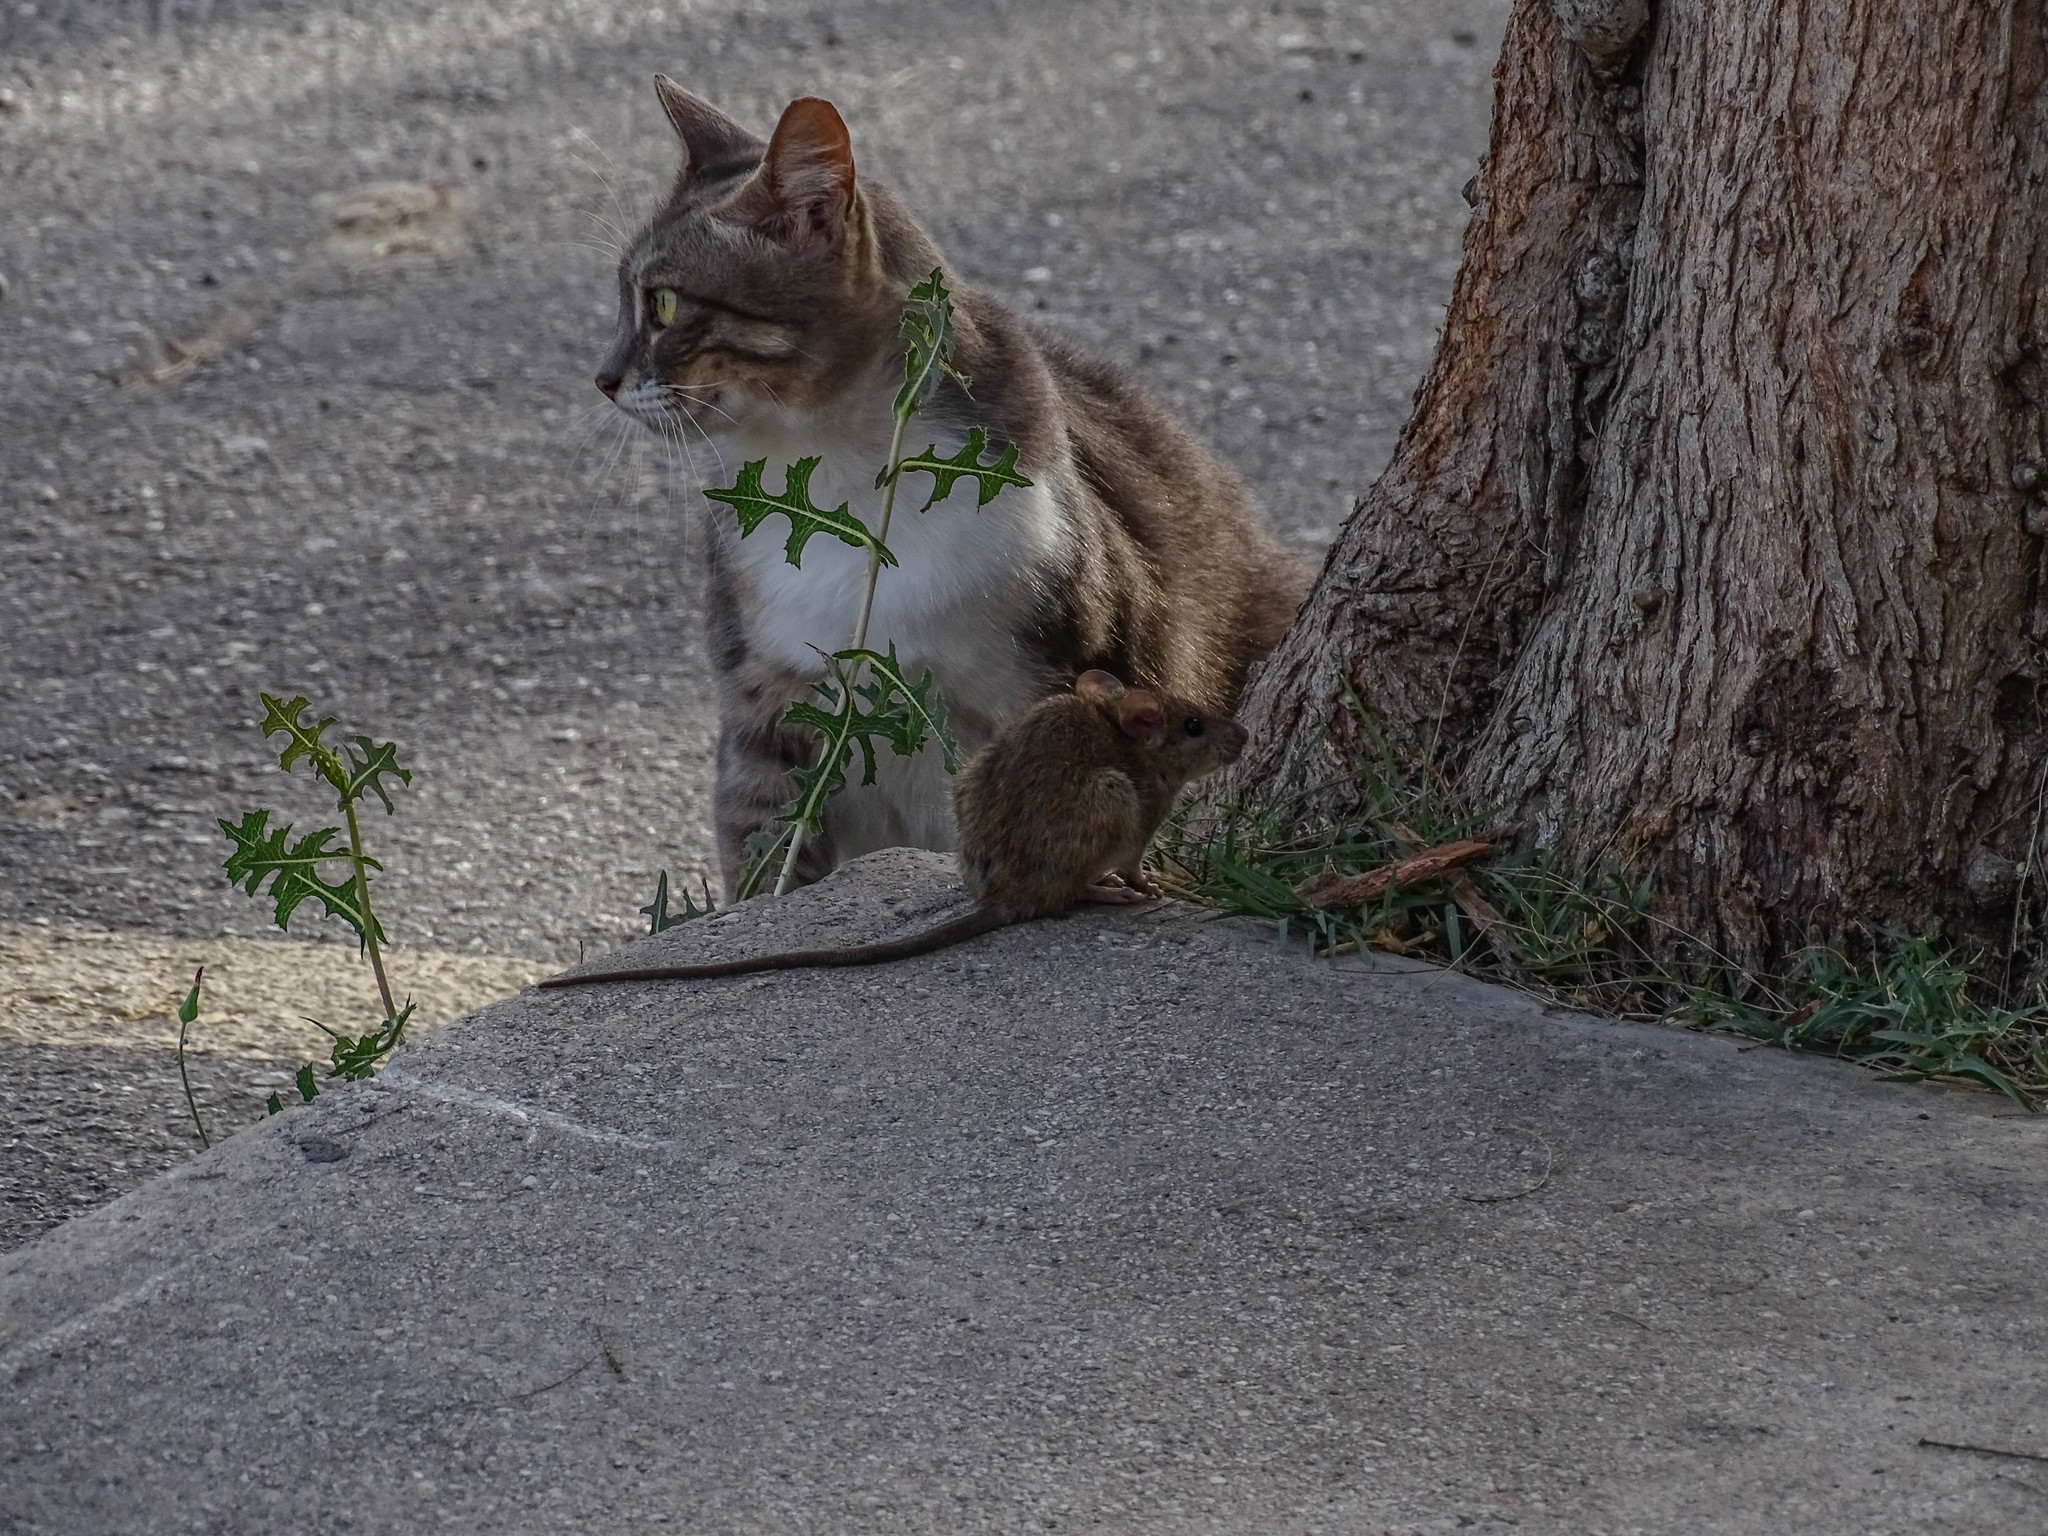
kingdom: Animalia
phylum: Chordata
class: Mammalia
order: Rodentia
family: Muridae
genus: Rattus
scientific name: Rattus rattus
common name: Black rat
